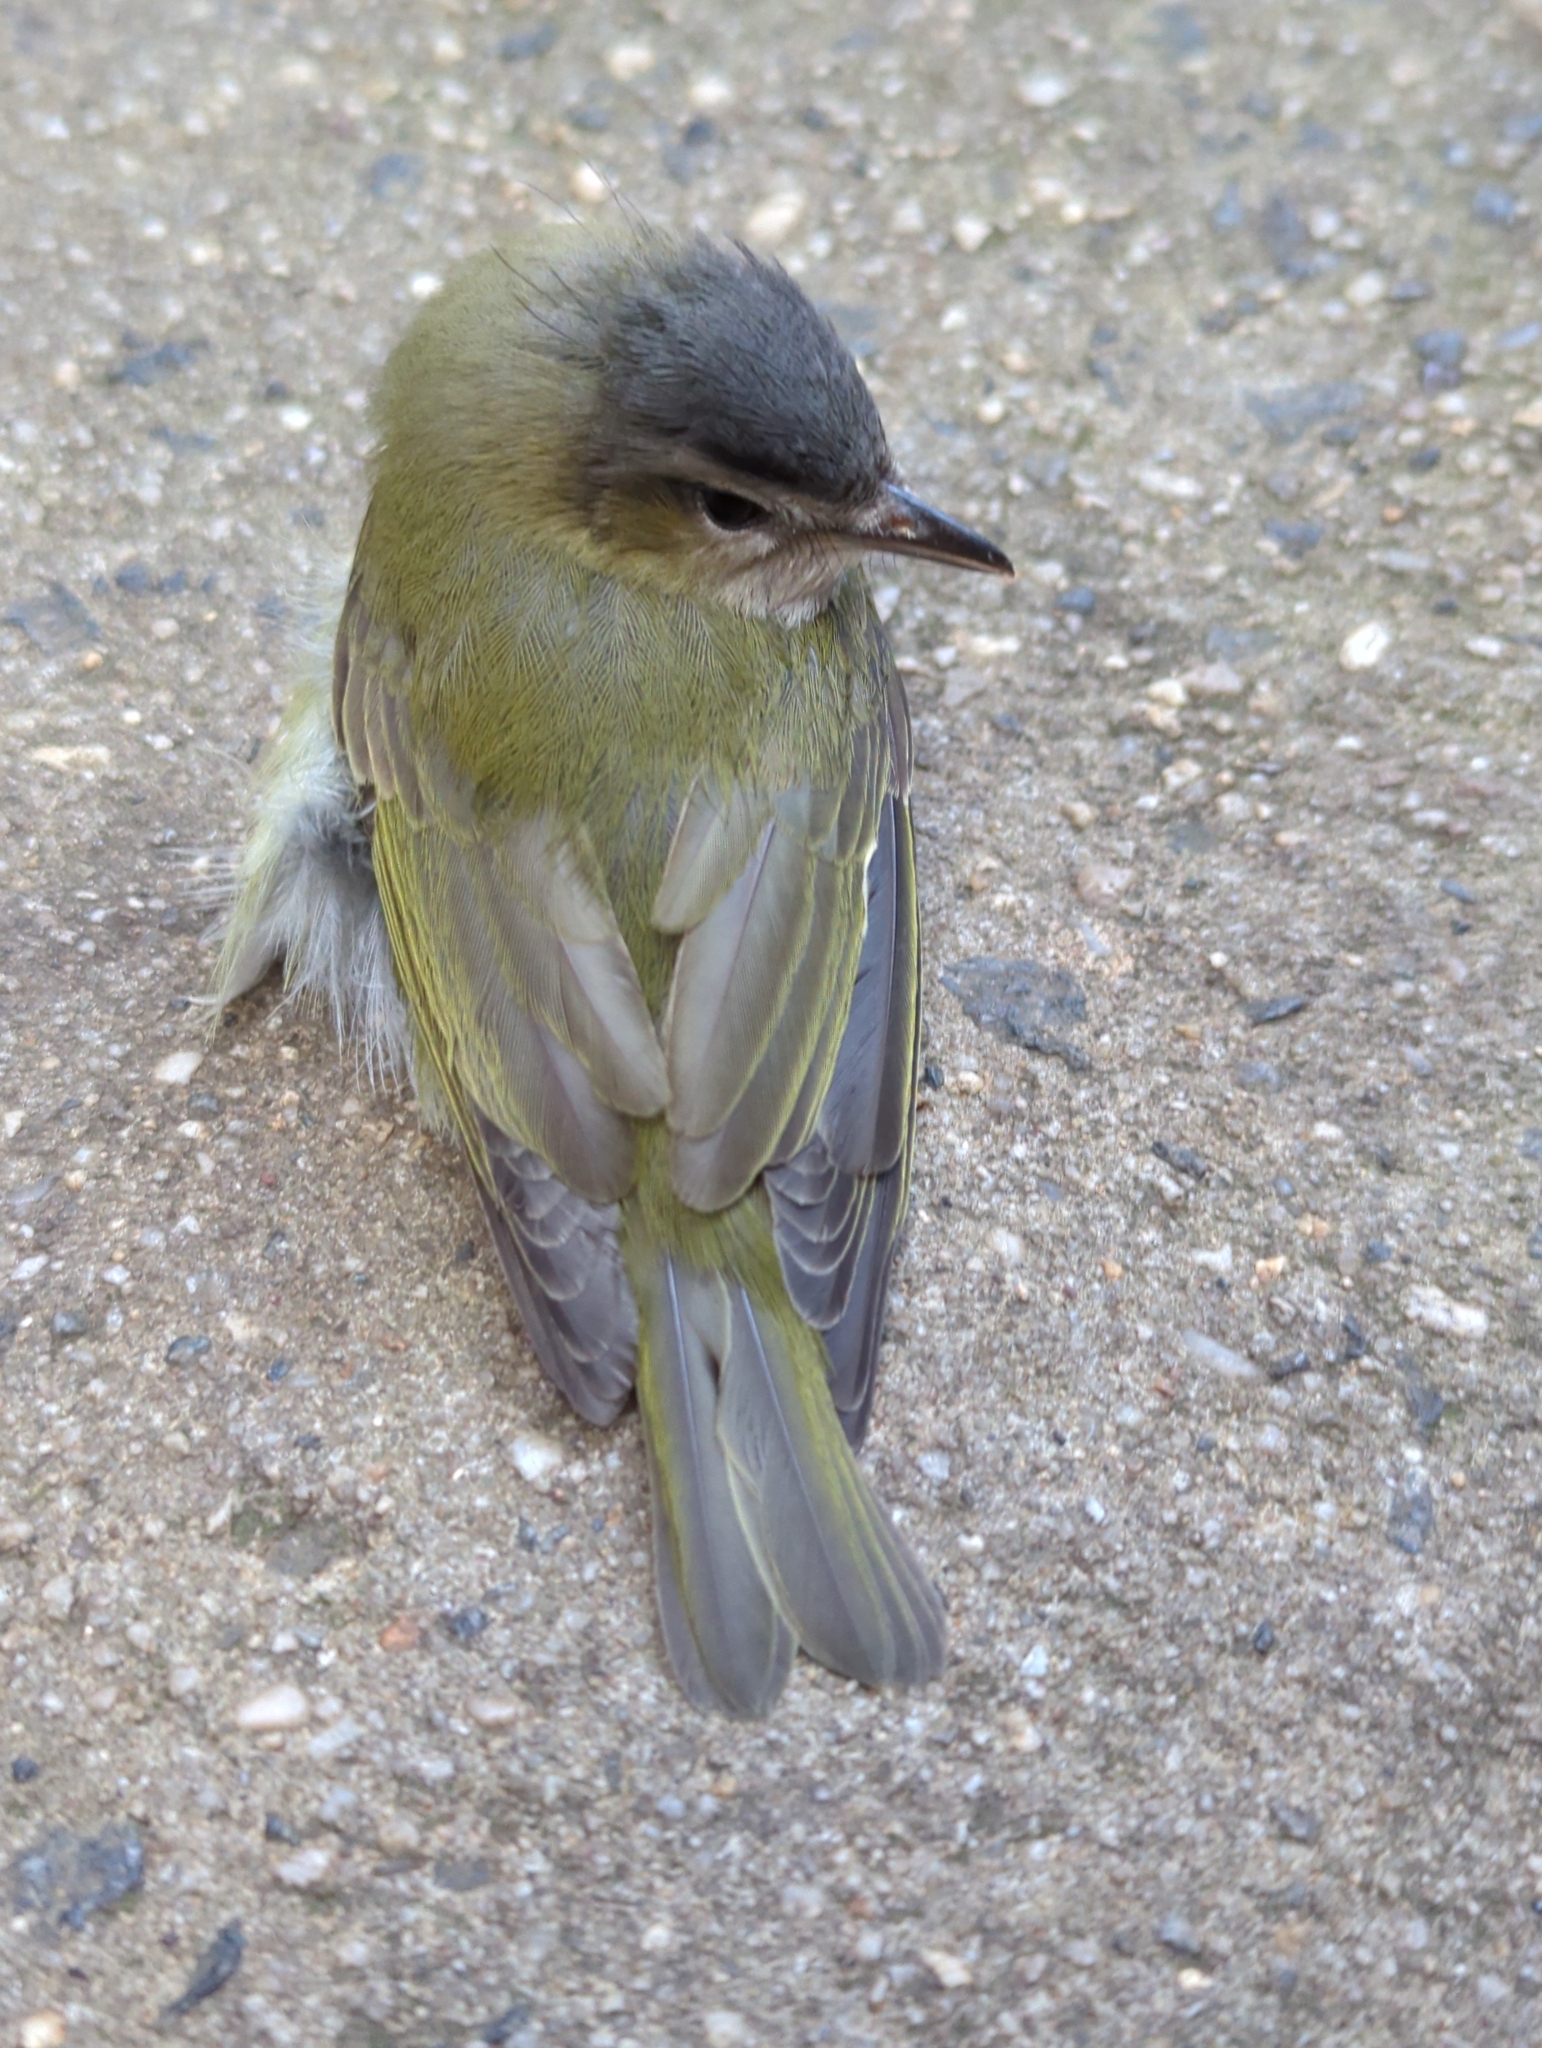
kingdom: Animalia
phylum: Chordata
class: Aves
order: Passeriformes
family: Vireonidae
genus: Vireo
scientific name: Vireo olivaceus
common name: Red-eyed vireo
